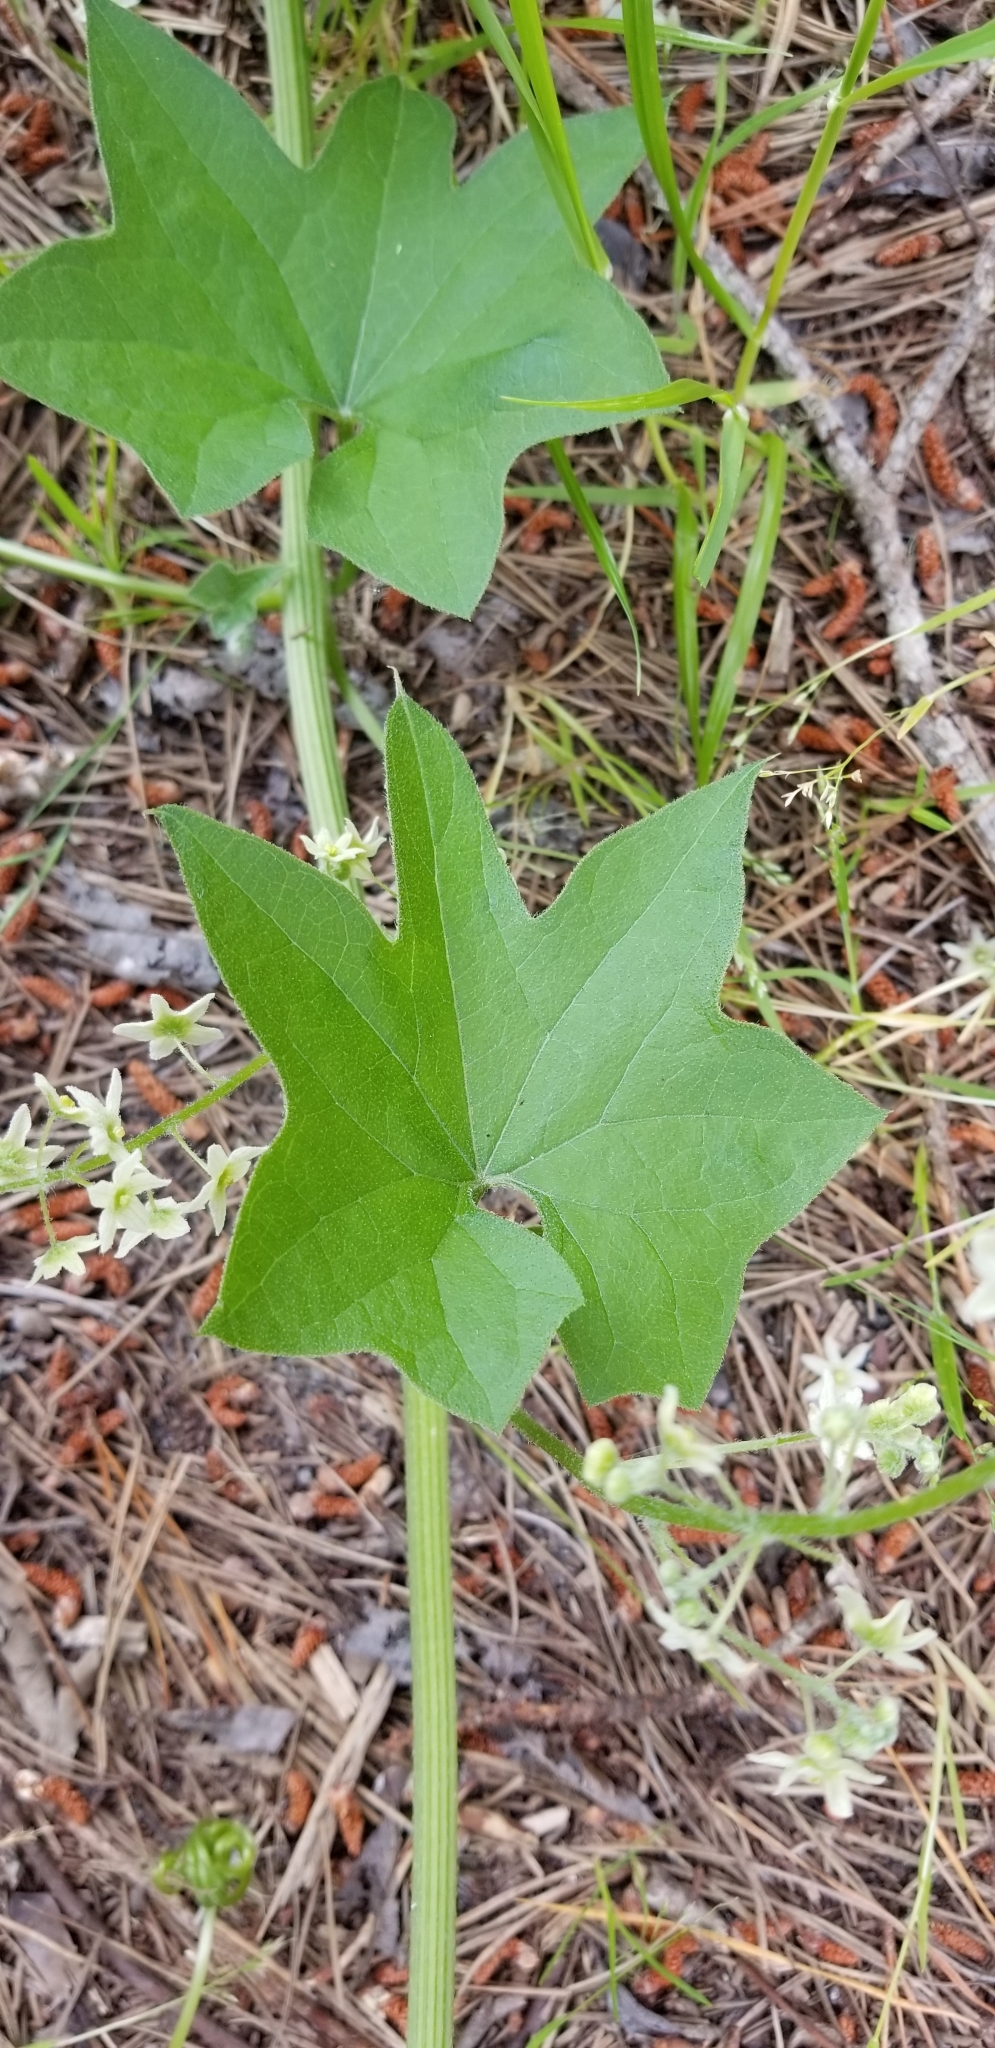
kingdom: Plantae
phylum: Tracheophyta
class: Magnoliopsida
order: Cucurbitales
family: Cucurbitaceae
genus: Marah
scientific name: Marah fabacea
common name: California manroot
